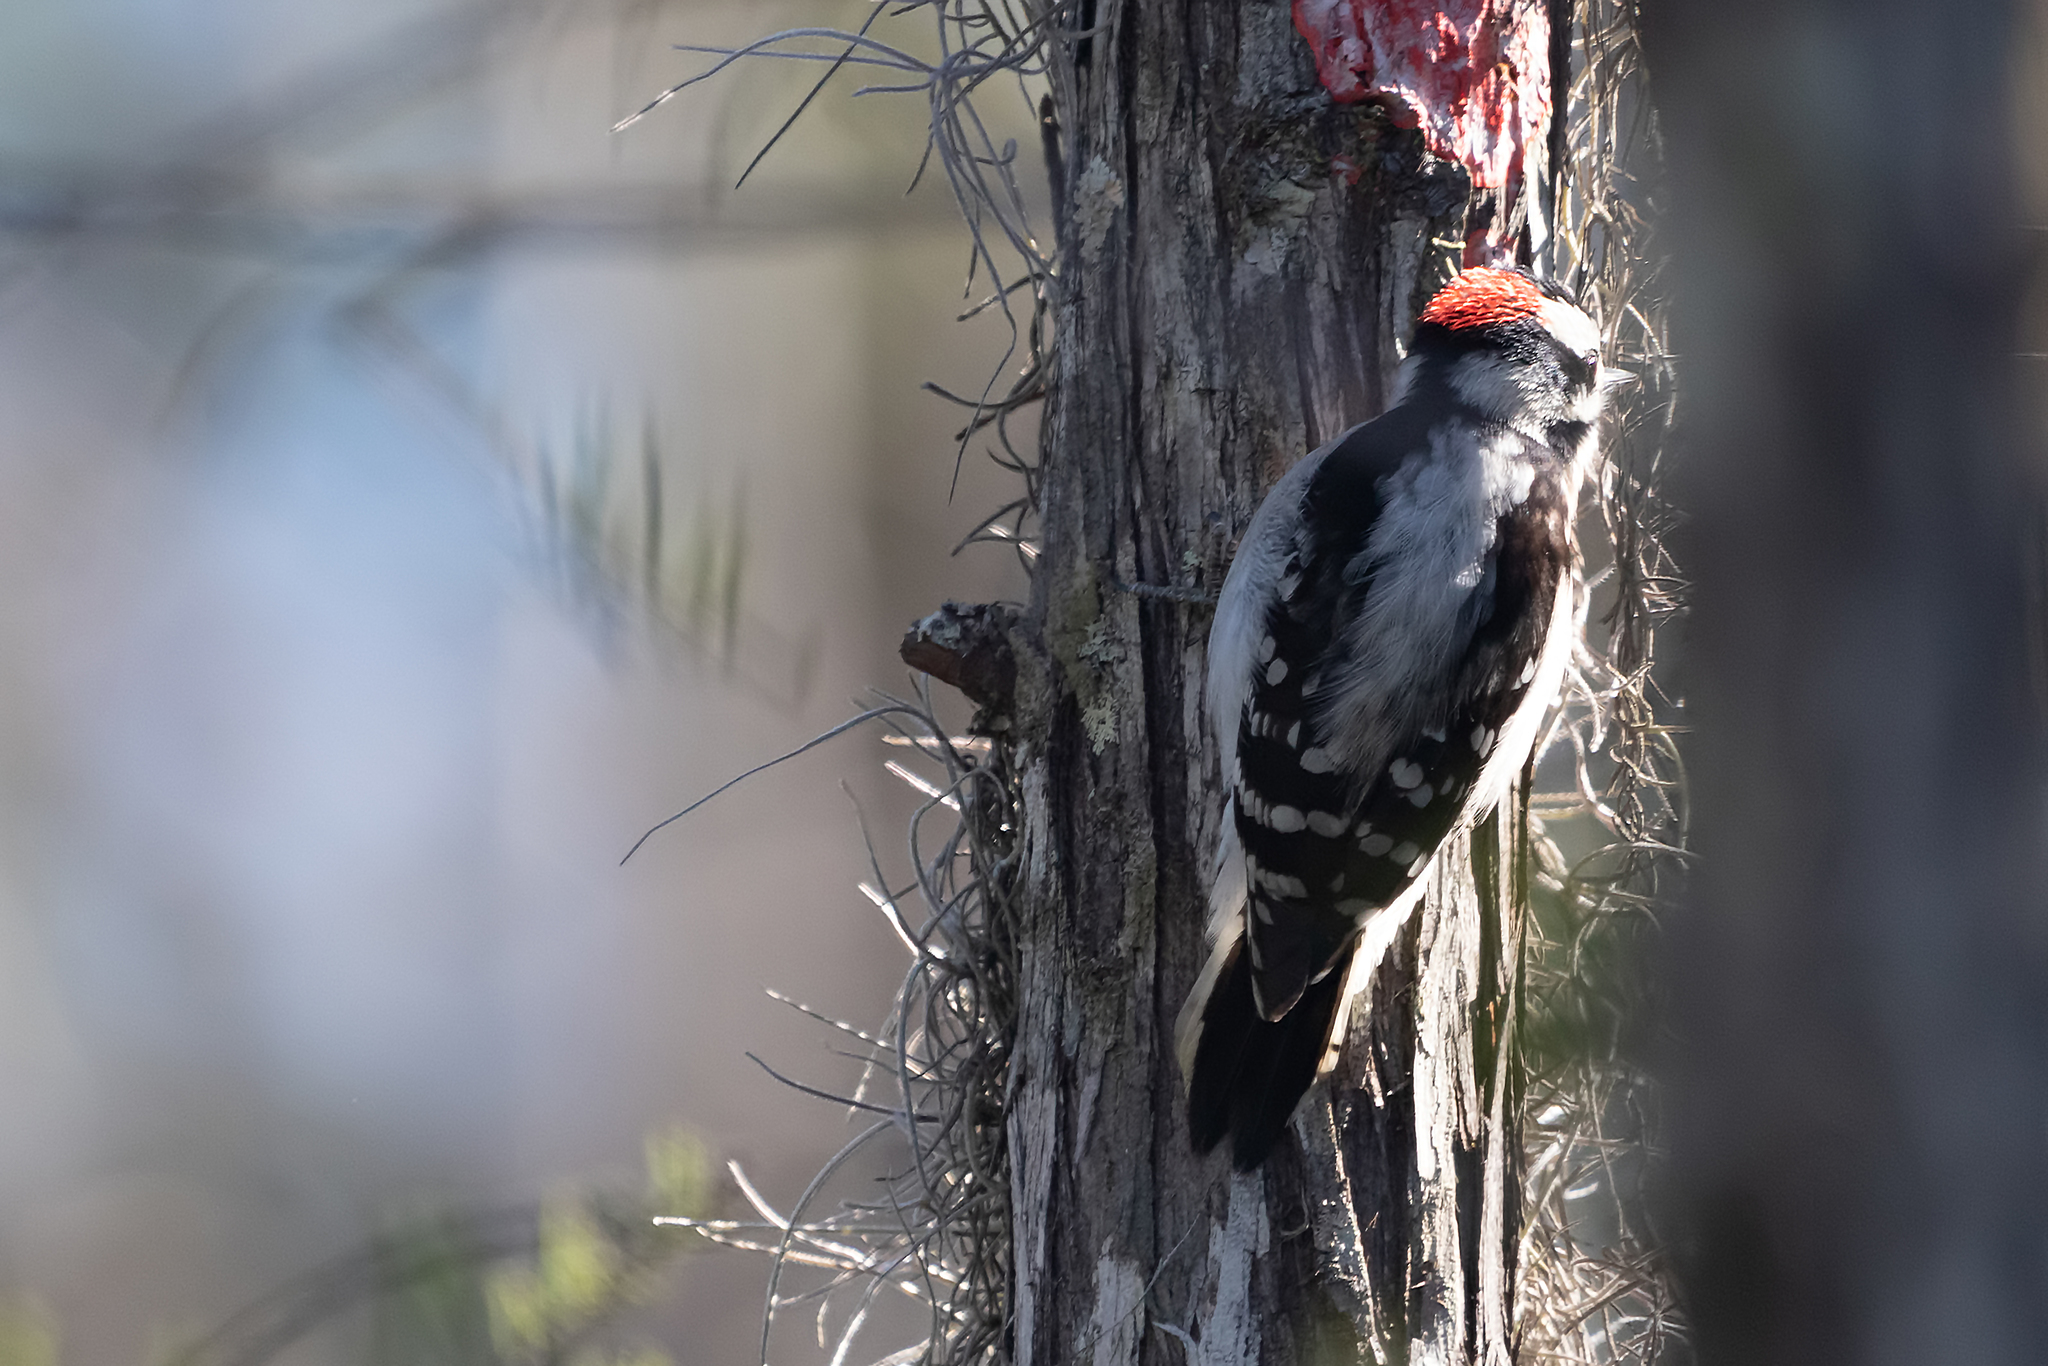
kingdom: Animalia
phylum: Chordata
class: Aves
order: Piciformes
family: Picidae
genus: Dryobates
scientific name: Dryobates pubescens
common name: Downy woodpecker
